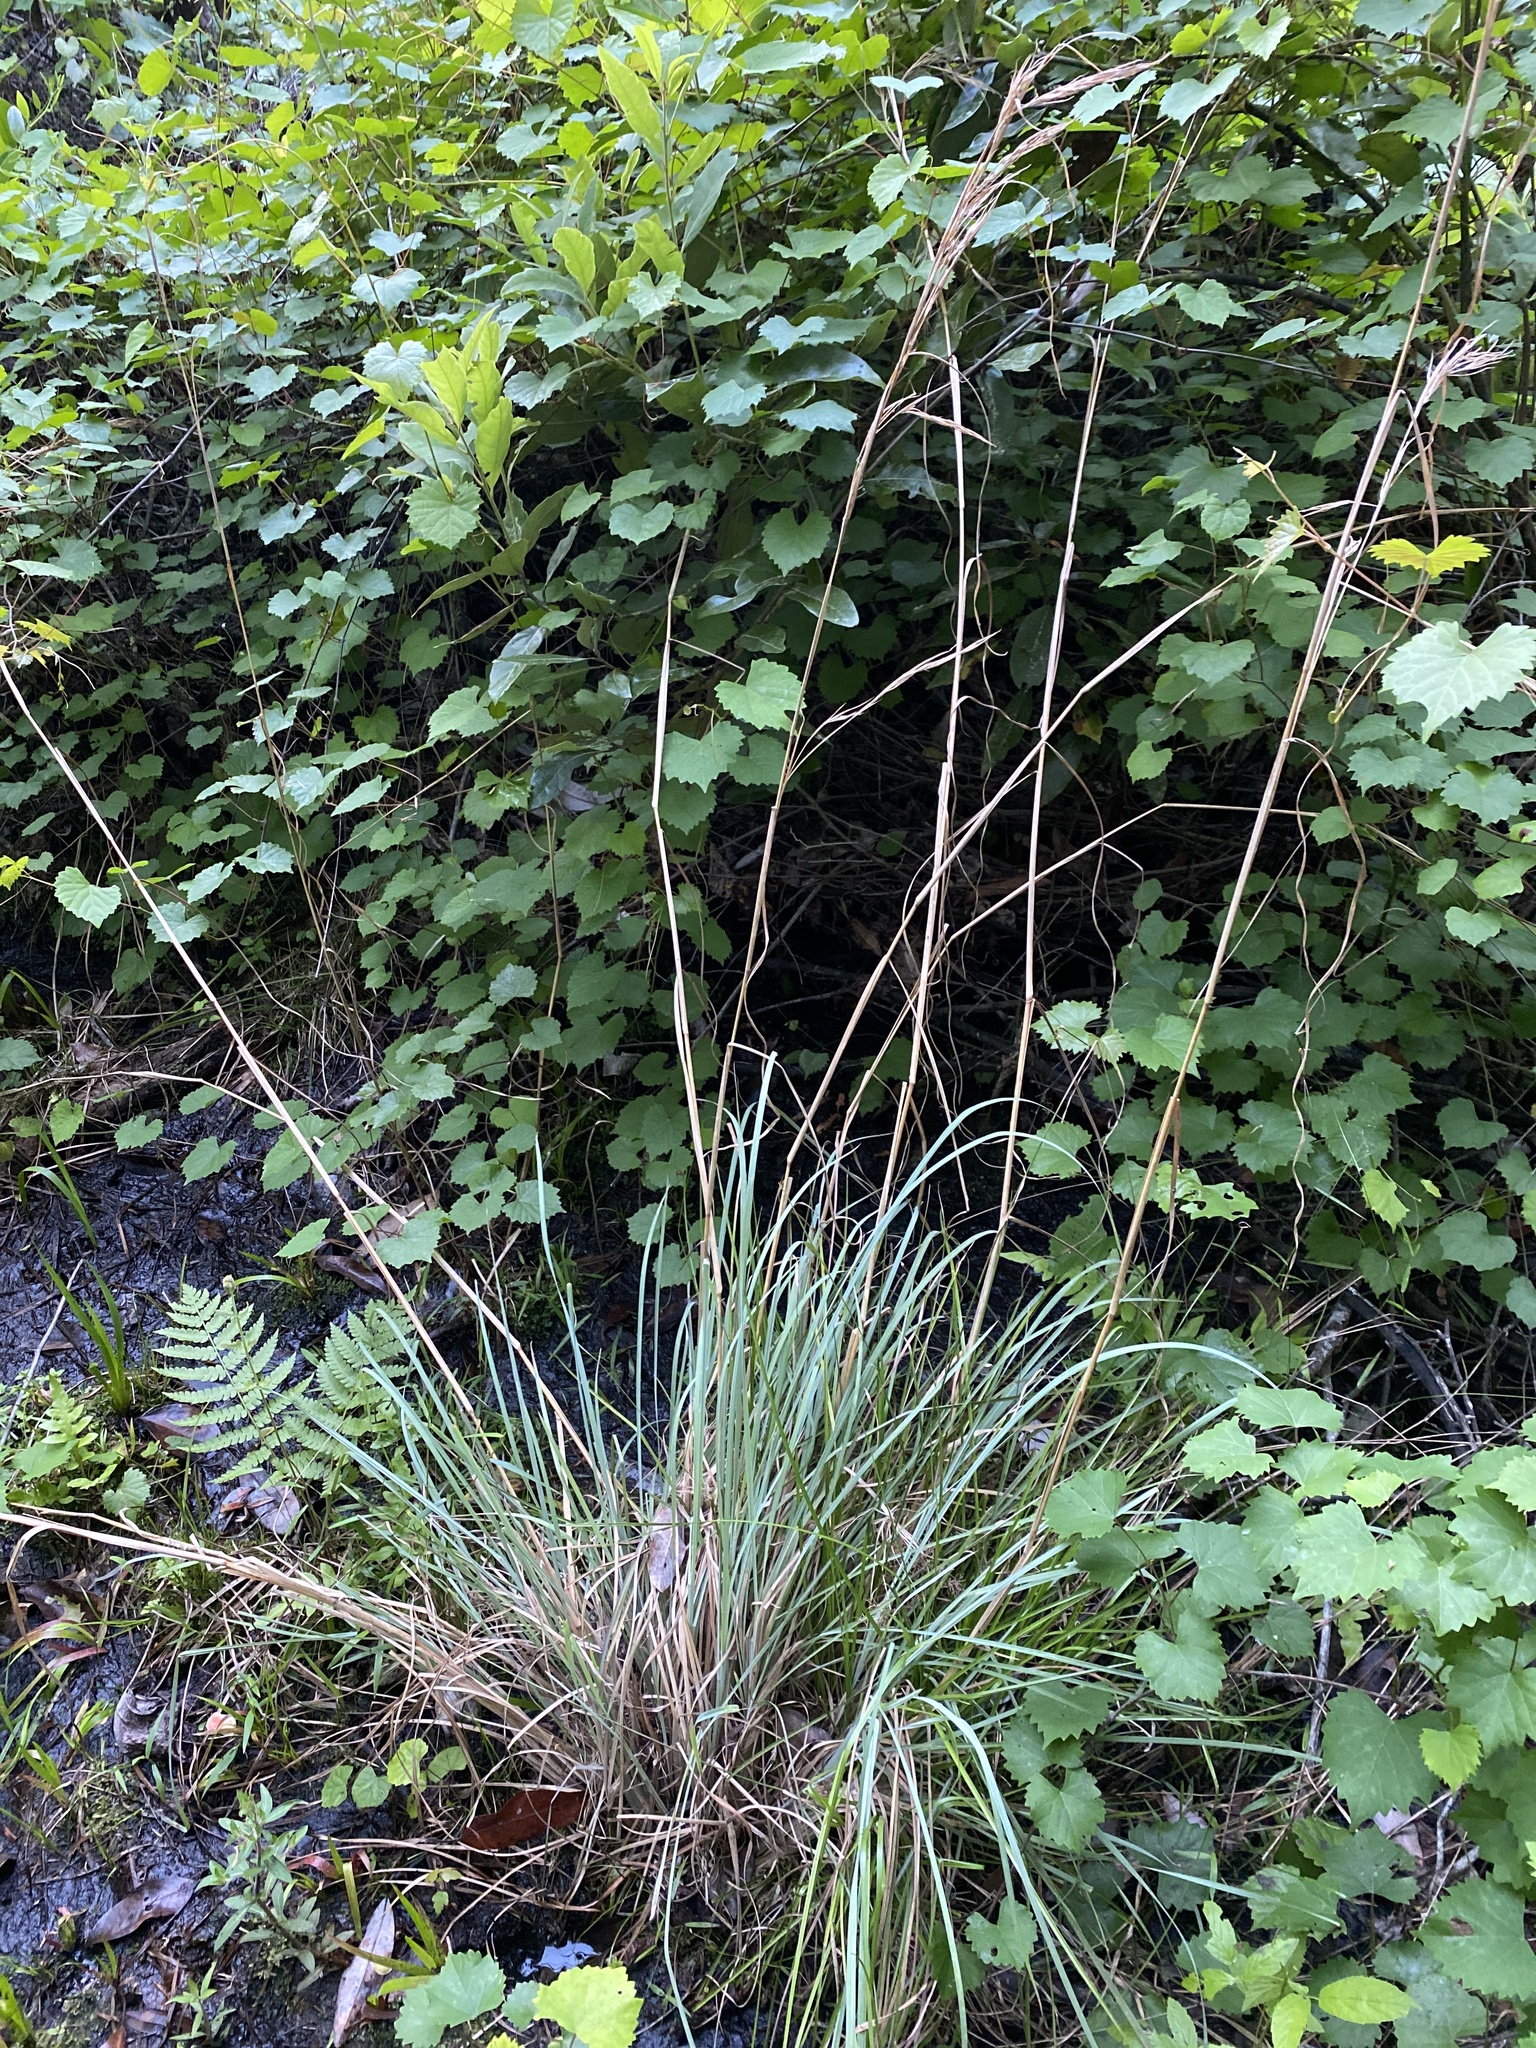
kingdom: Plantae
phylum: Tracheophyta
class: Liliopsida
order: Poales
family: Poaceae
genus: Andropogon
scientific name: Andropogon cretaceus
